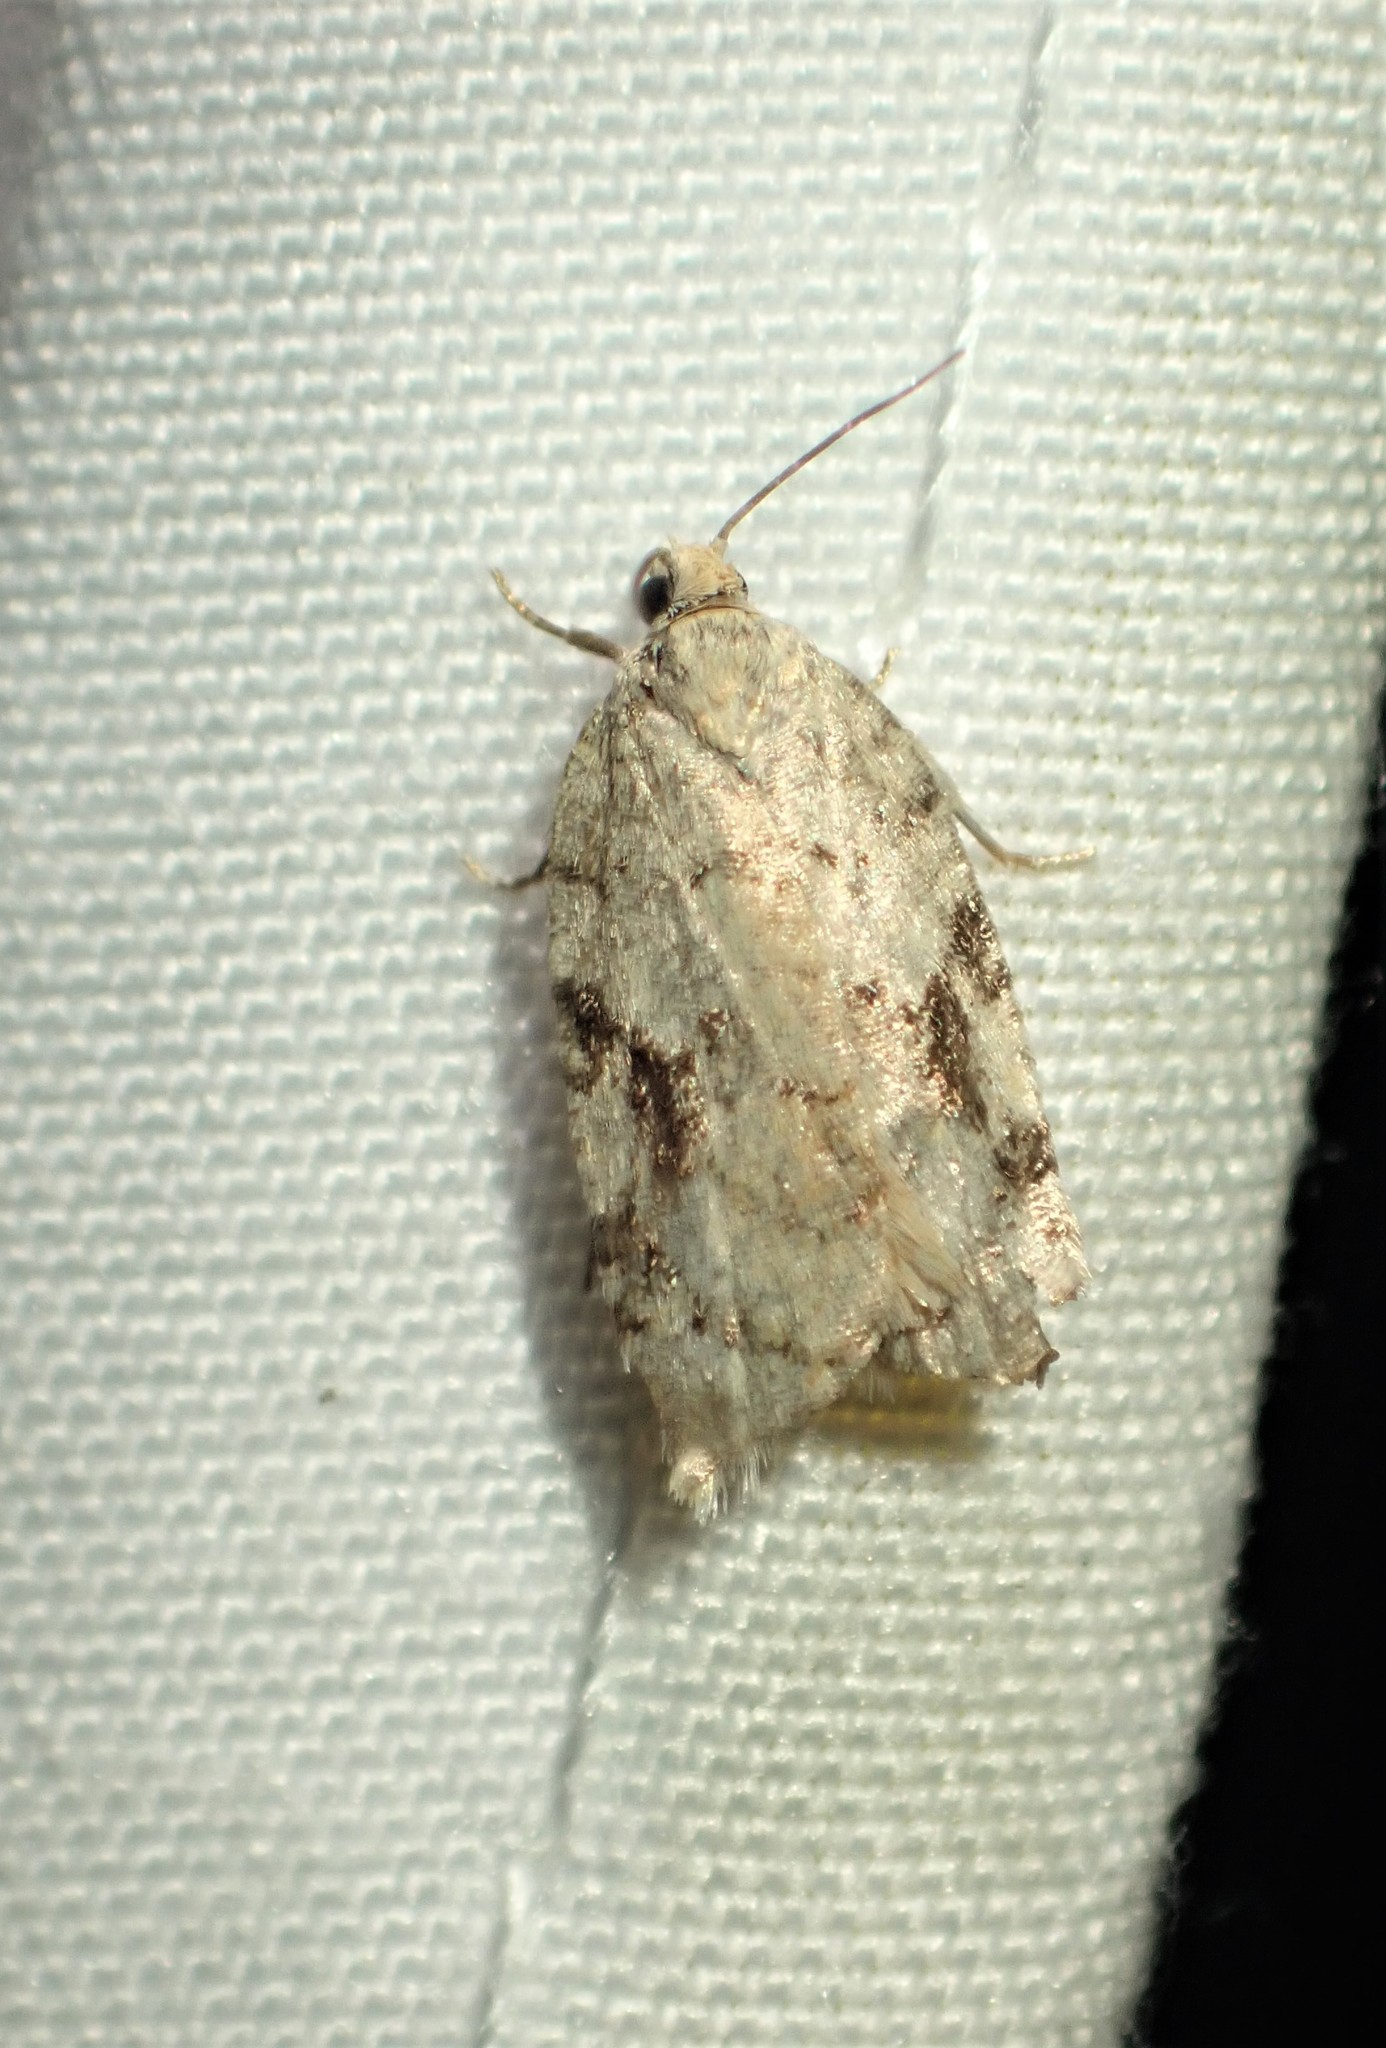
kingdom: Animalia
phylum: Arthropoda
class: Insecta
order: Lepidoptera
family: Tortricidae
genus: Acleris
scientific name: Acleris placidana
